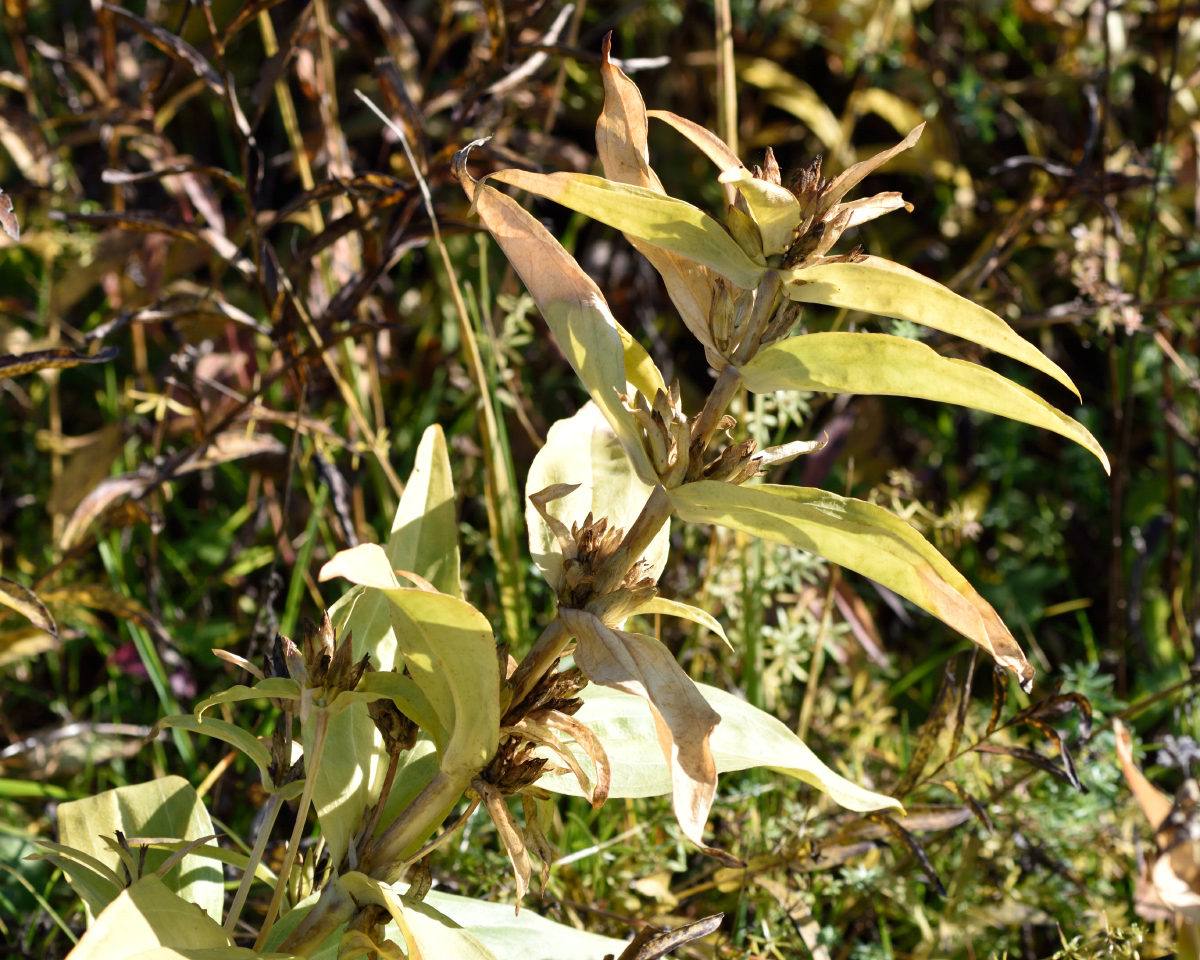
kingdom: Plantae
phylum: Tracheophyta
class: Magnoliopsida
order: Gentianales
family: Gentianaceae
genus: Gentiana
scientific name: Gentiana cruciata
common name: Cross gentian
